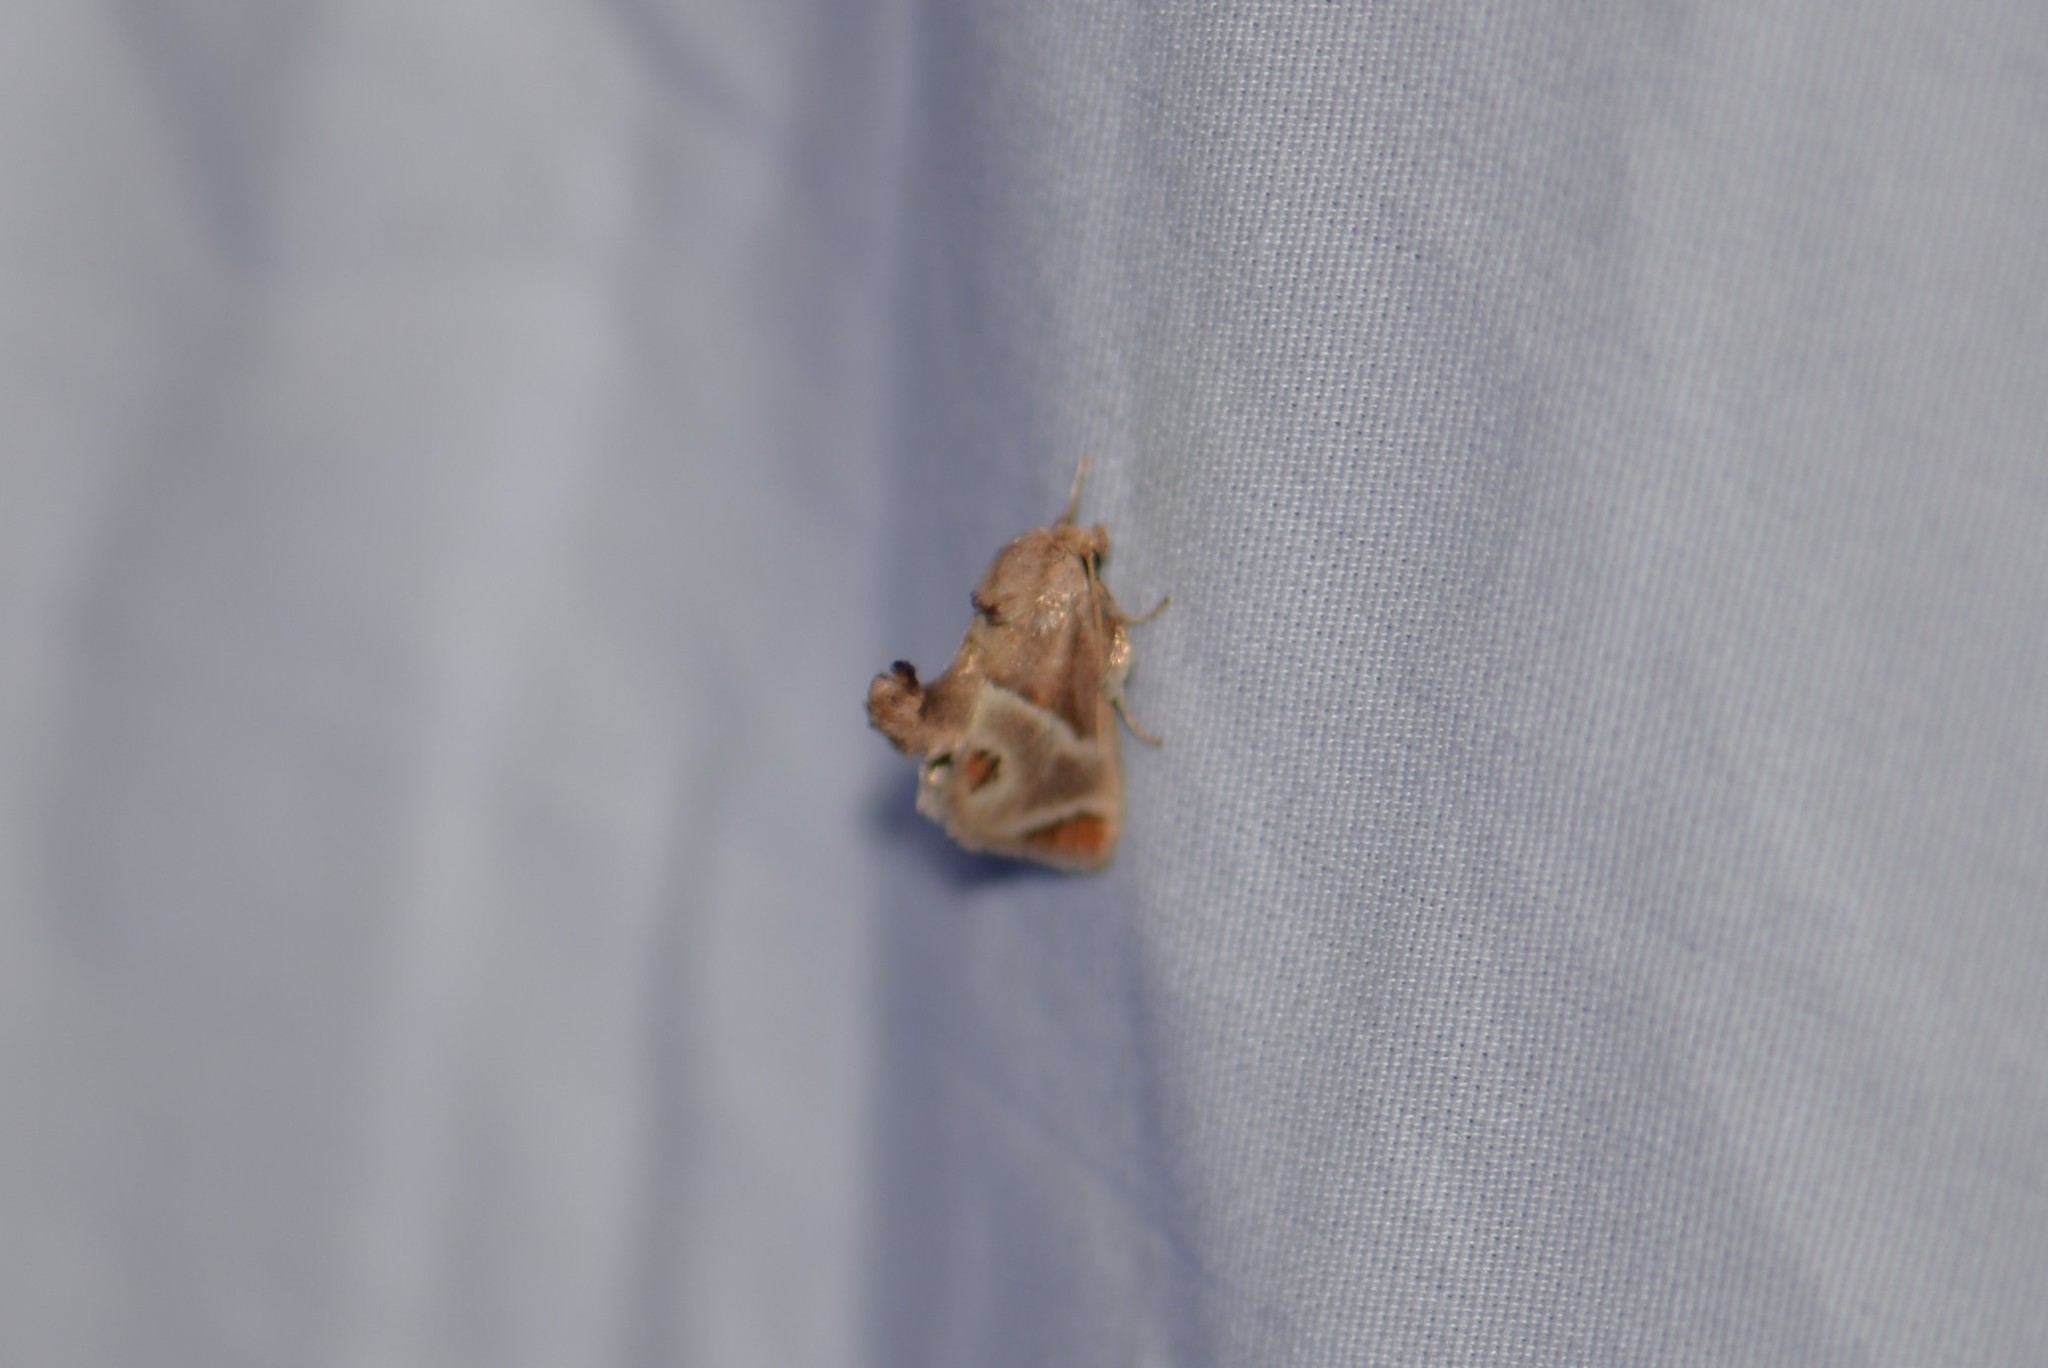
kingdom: Animalia
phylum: Arthropoda
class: Insecta
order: Lepidoptera
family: Limacodidae
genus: Apoda
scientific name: Apoda biguttata
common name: Shagreened slug moth
